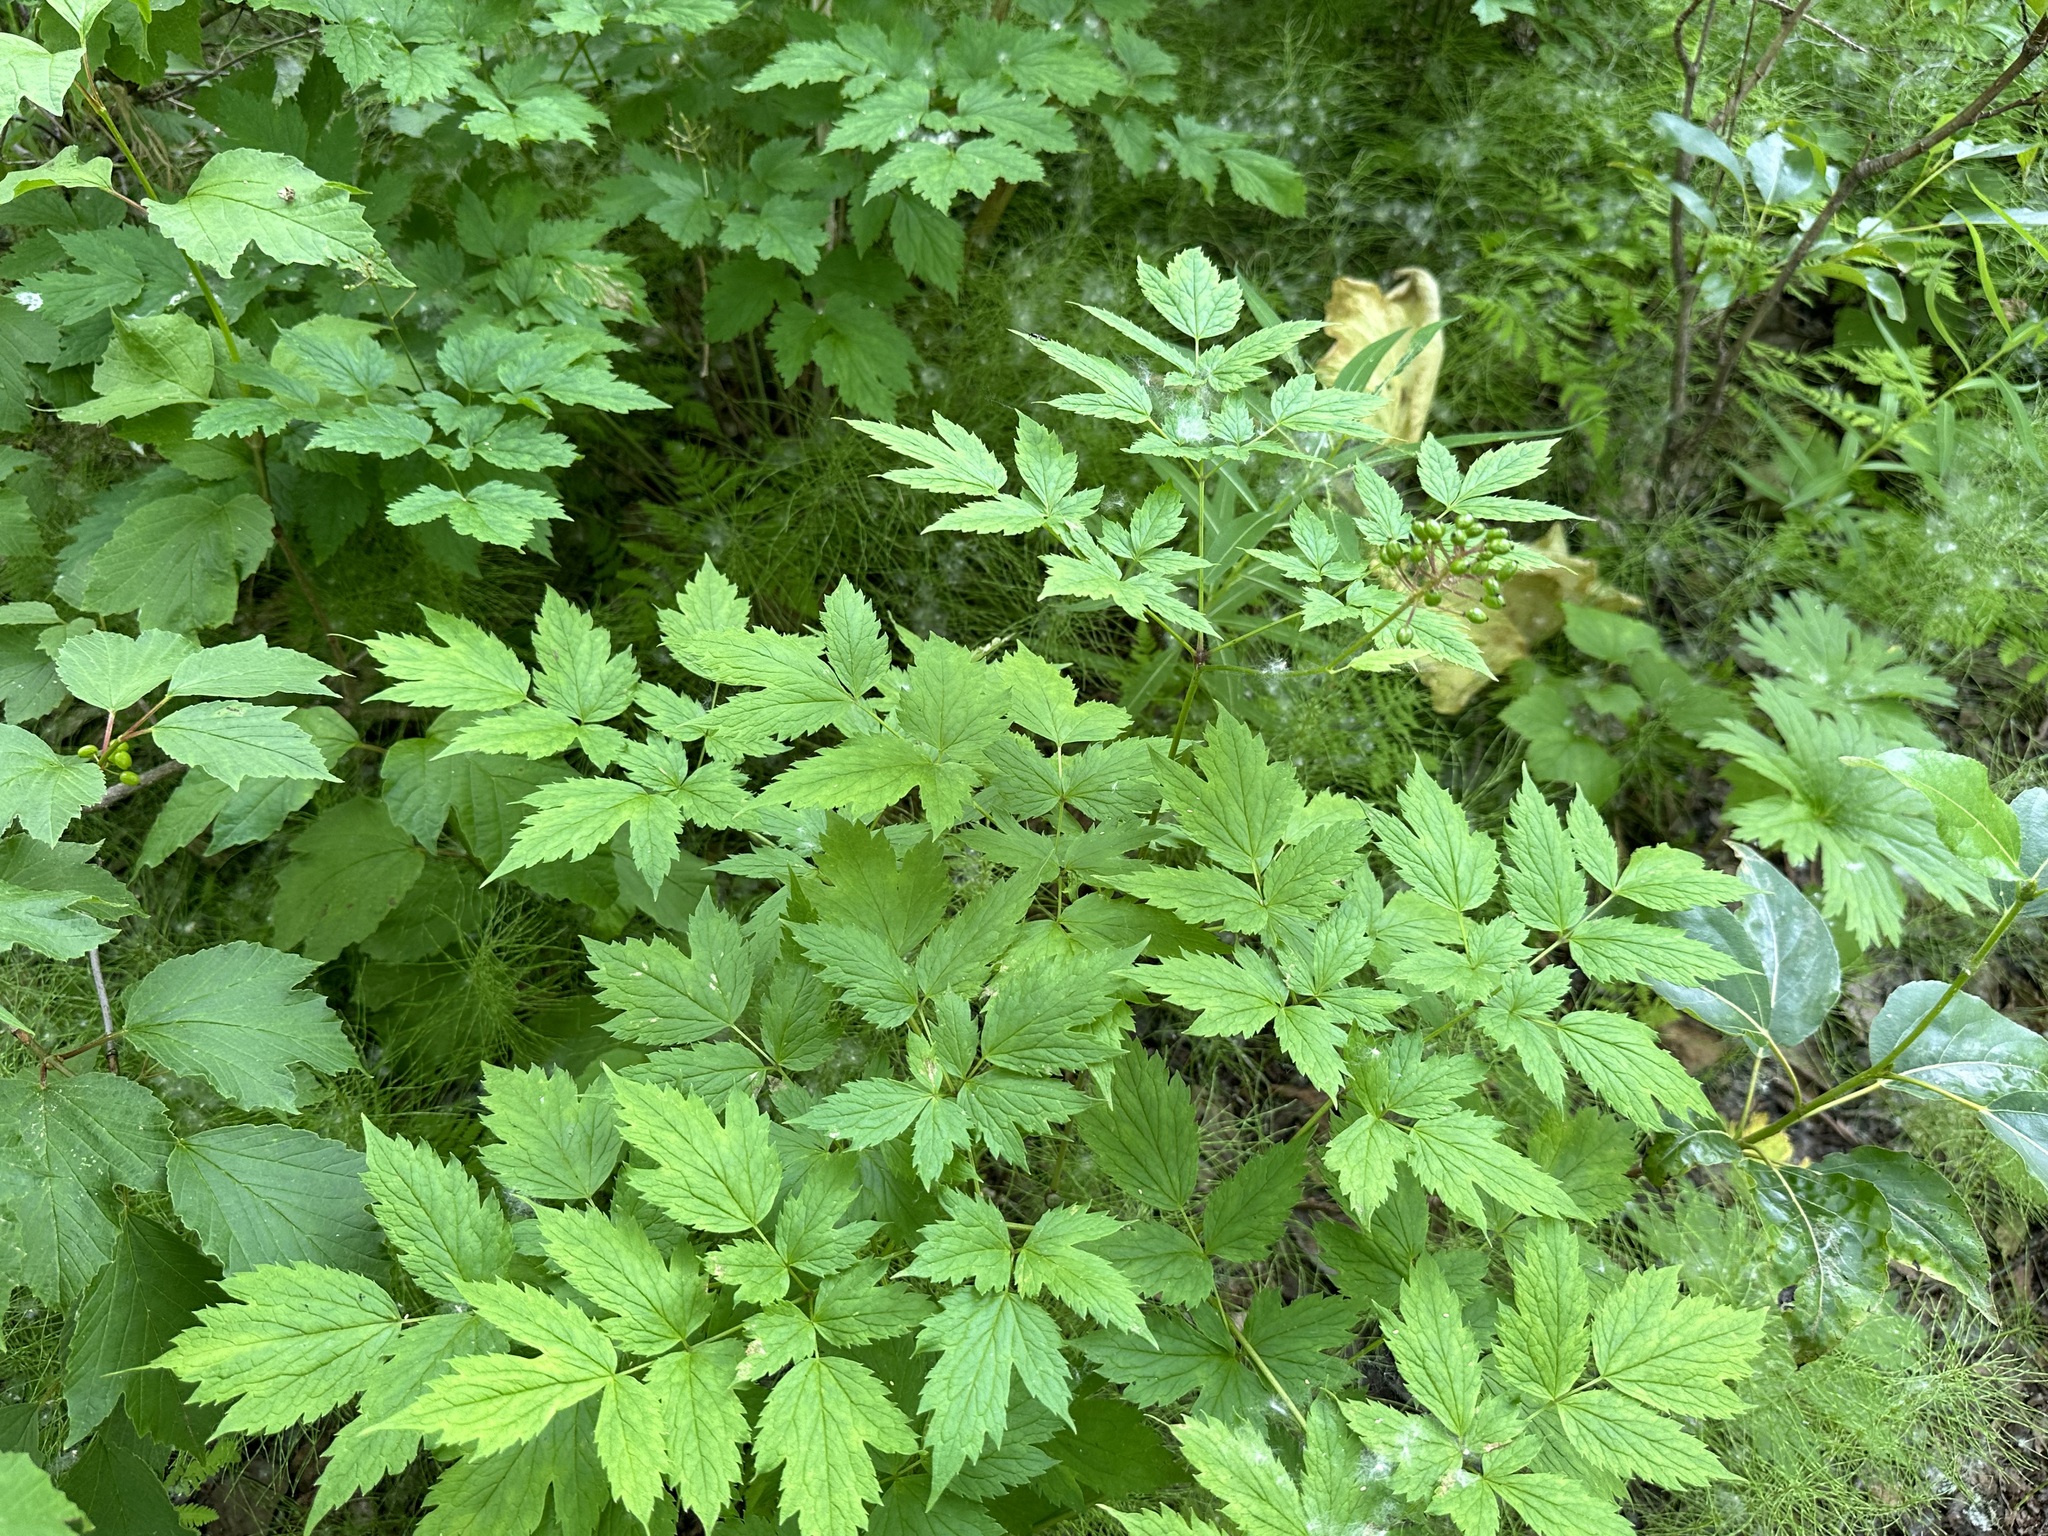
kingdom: Plantae
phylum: Tracheophyta
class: Magnoliopsida
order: Ranunculales
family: Ranunculaceae
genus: Actaea
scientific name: Actaea rubra
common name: Red baneberry
